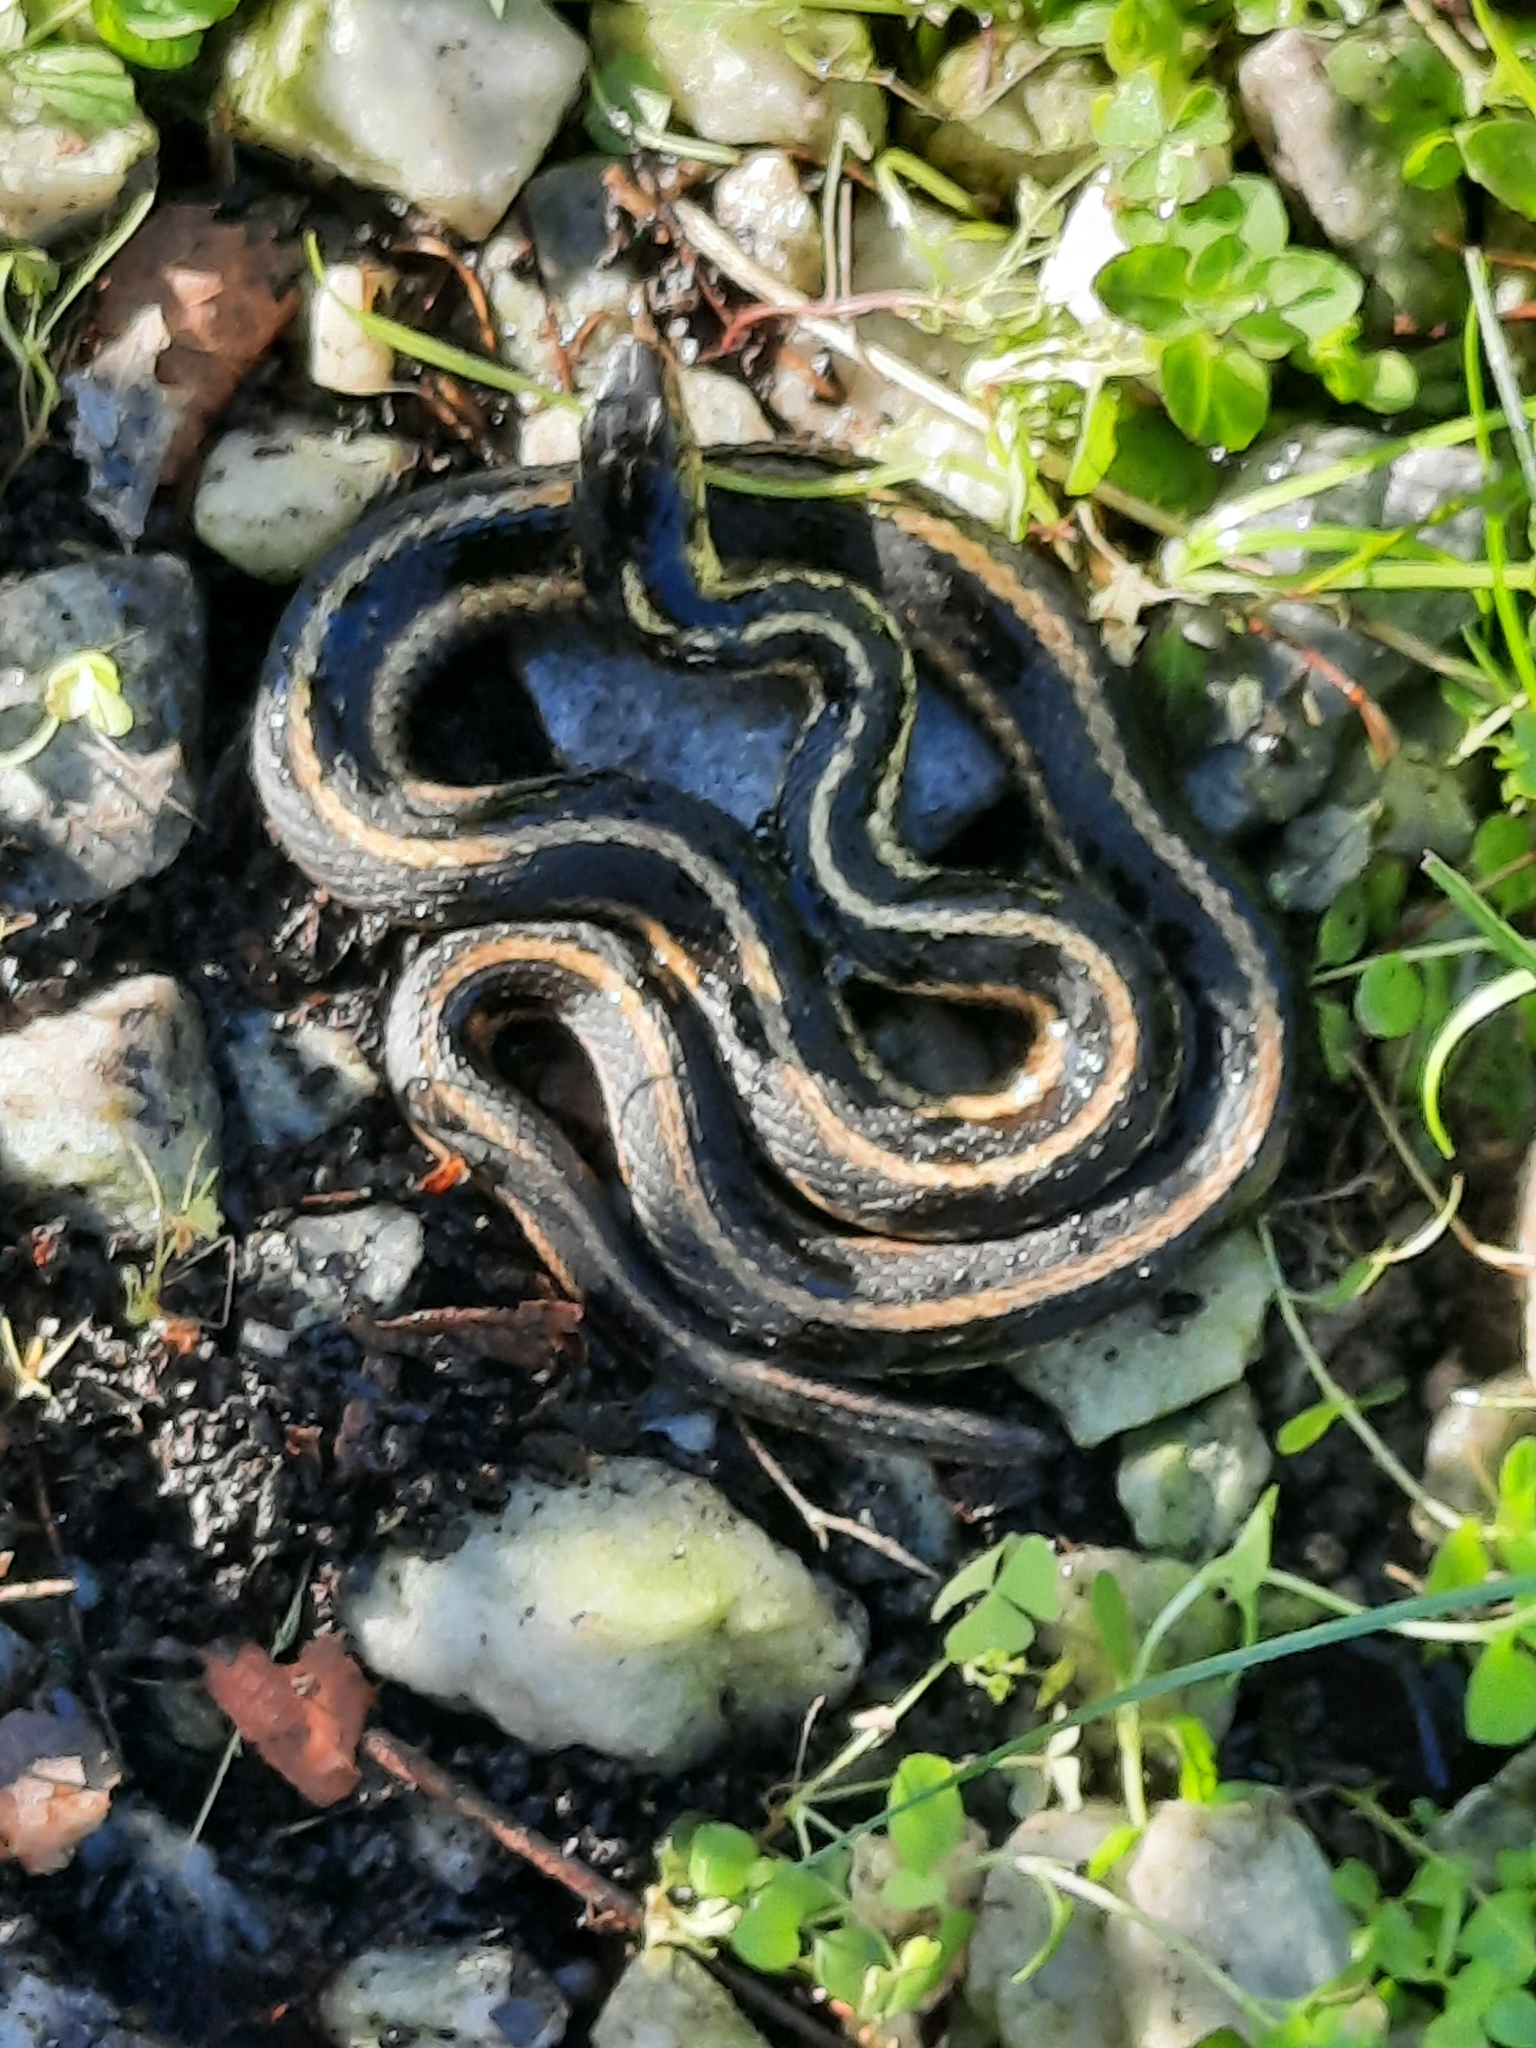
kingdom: Animalia
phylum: Chordata
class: Squamata
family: Colubridae
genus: Thamnophis
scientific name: Thamnophis sirtalis
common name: Common garter snake
